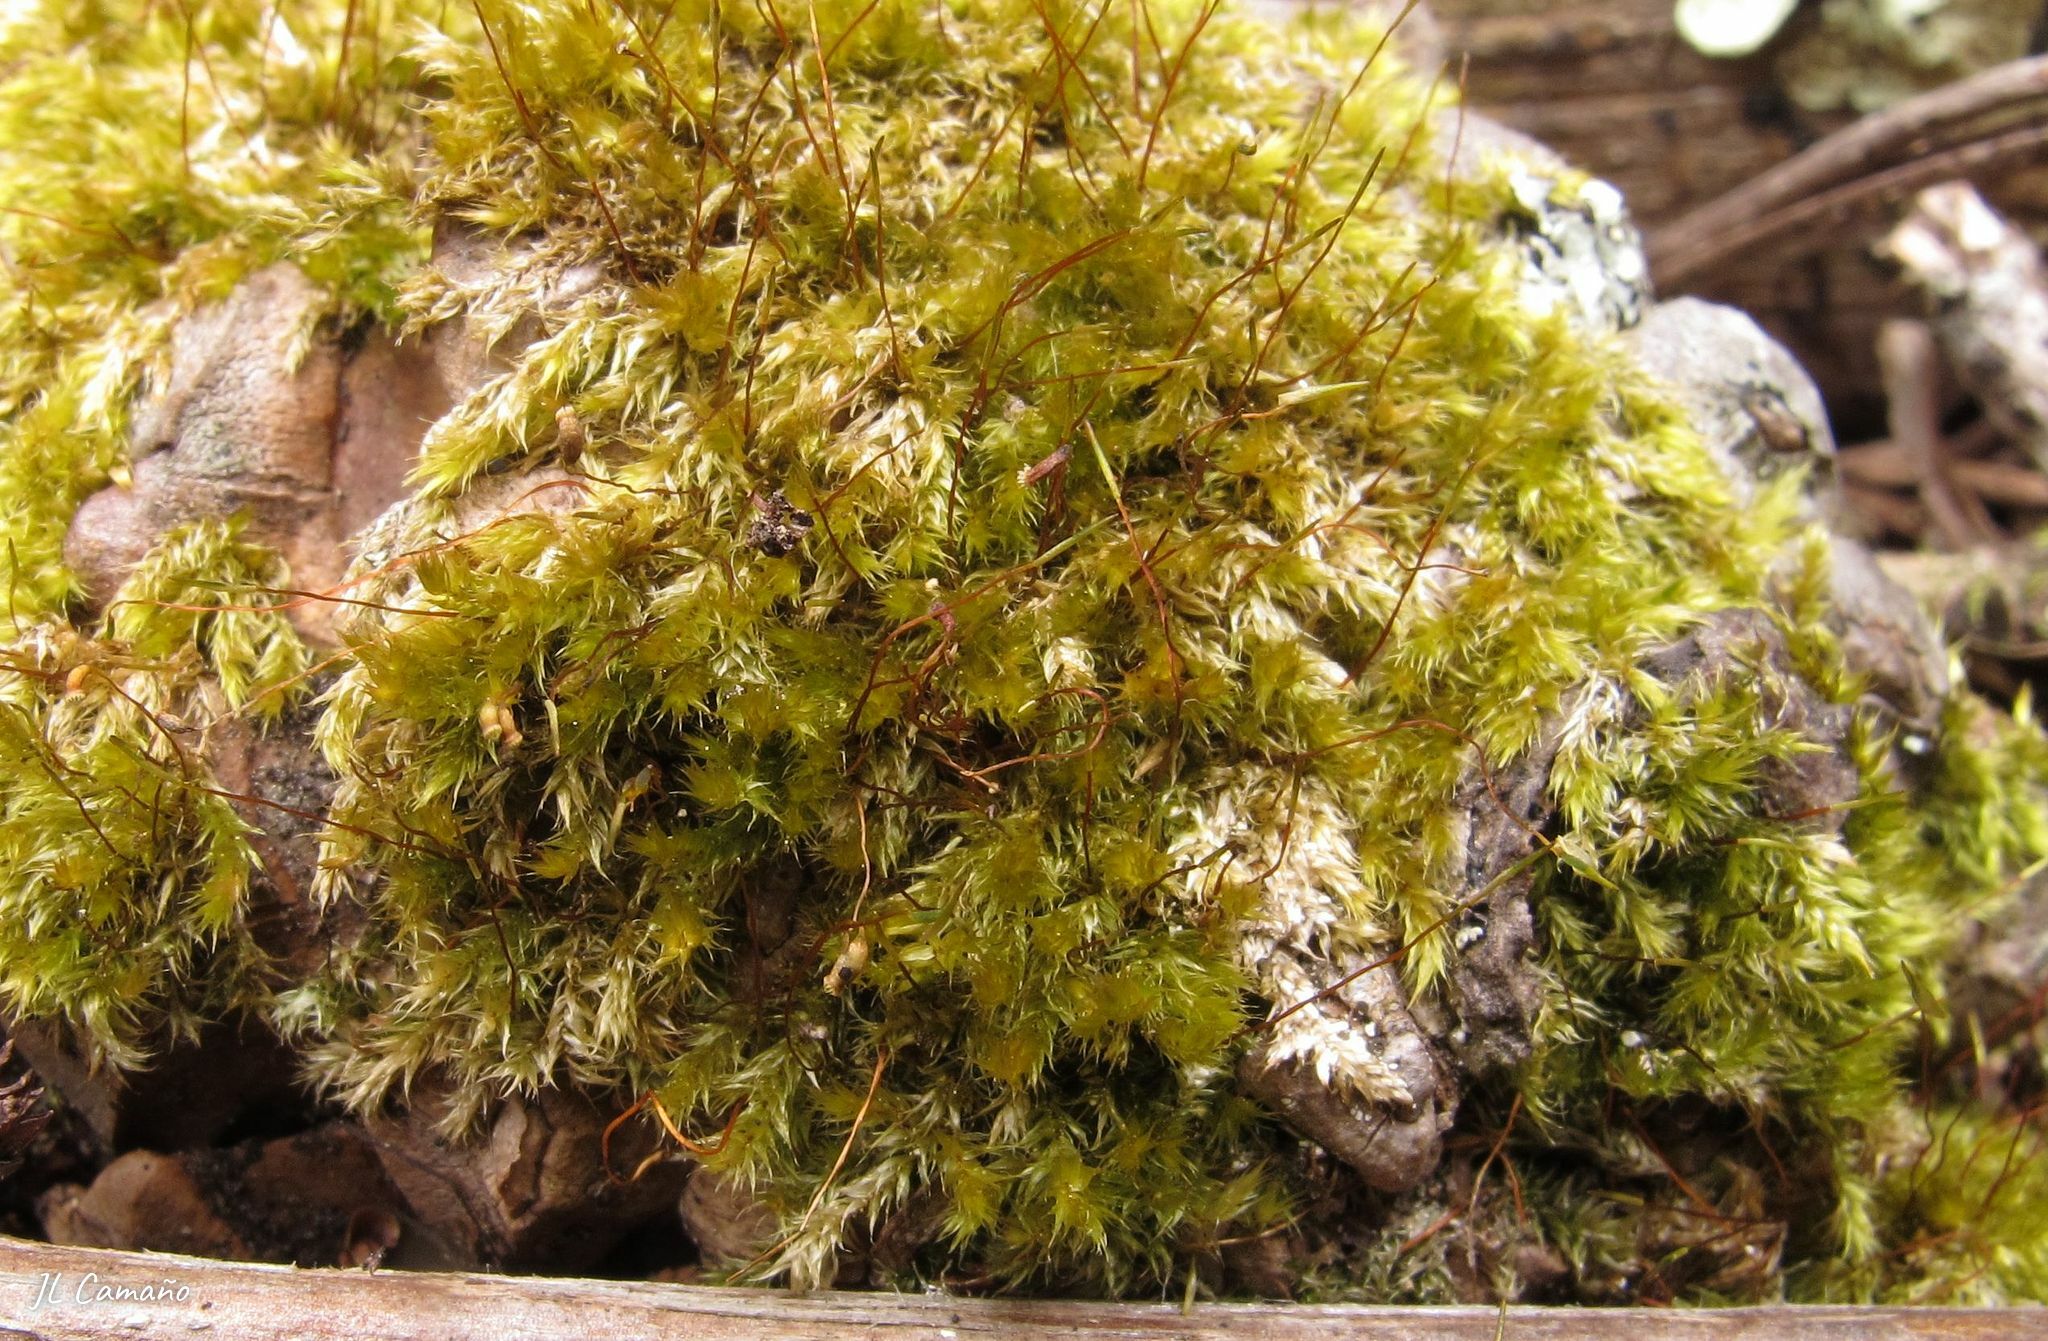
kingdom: Plantae
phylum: Bryophyta
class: Bryopsida
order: Hypnales
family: Sematophyllaceae
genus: Sematophyllum
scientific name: Sematophyllum substrumulosum
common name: Bark signal-moss
